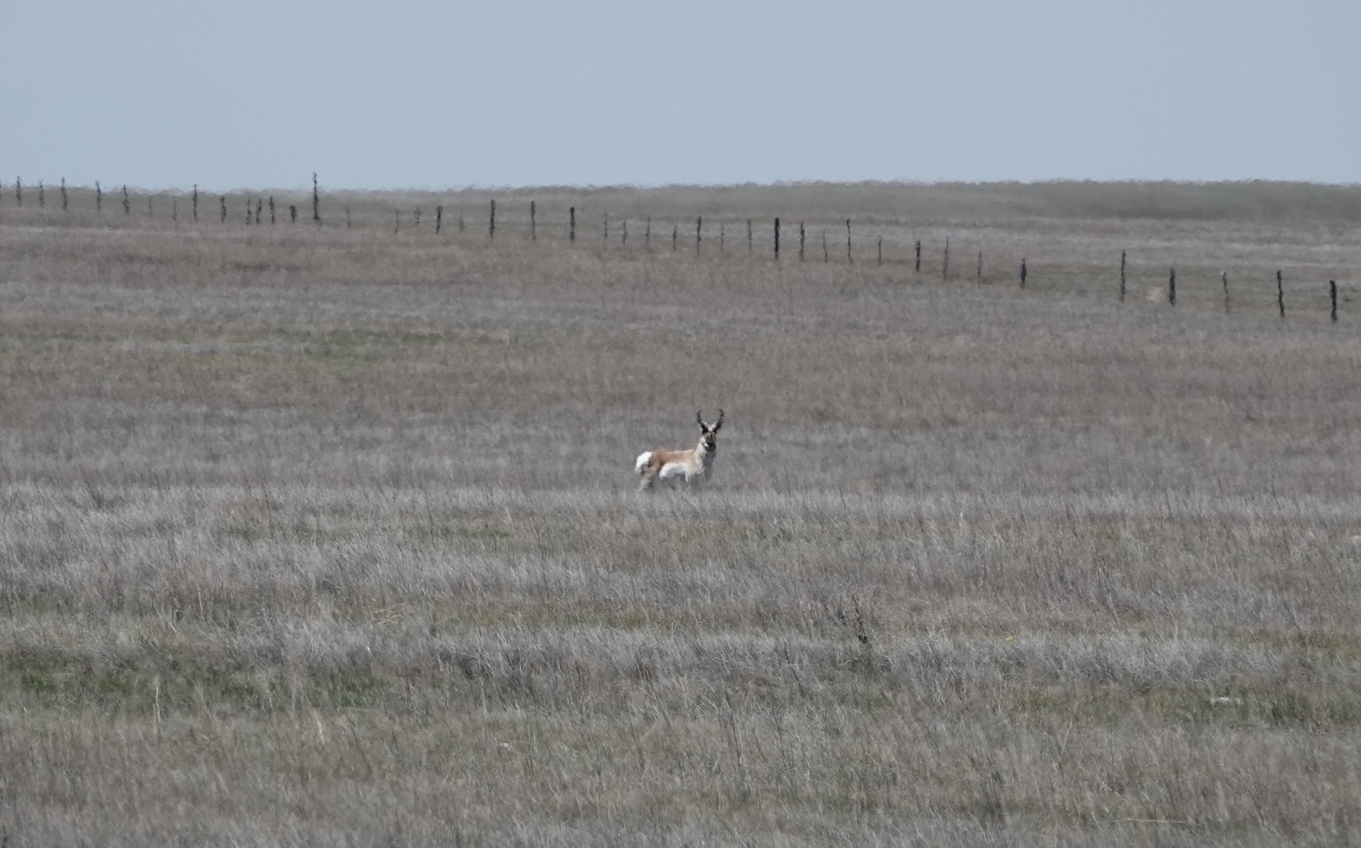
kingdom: Animalia
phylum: Chordata
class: Mammalia
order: Artiodactyla
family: Antilocapridae
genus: Antilocapra
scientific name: Antilocapra americana
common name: Pronghorn
